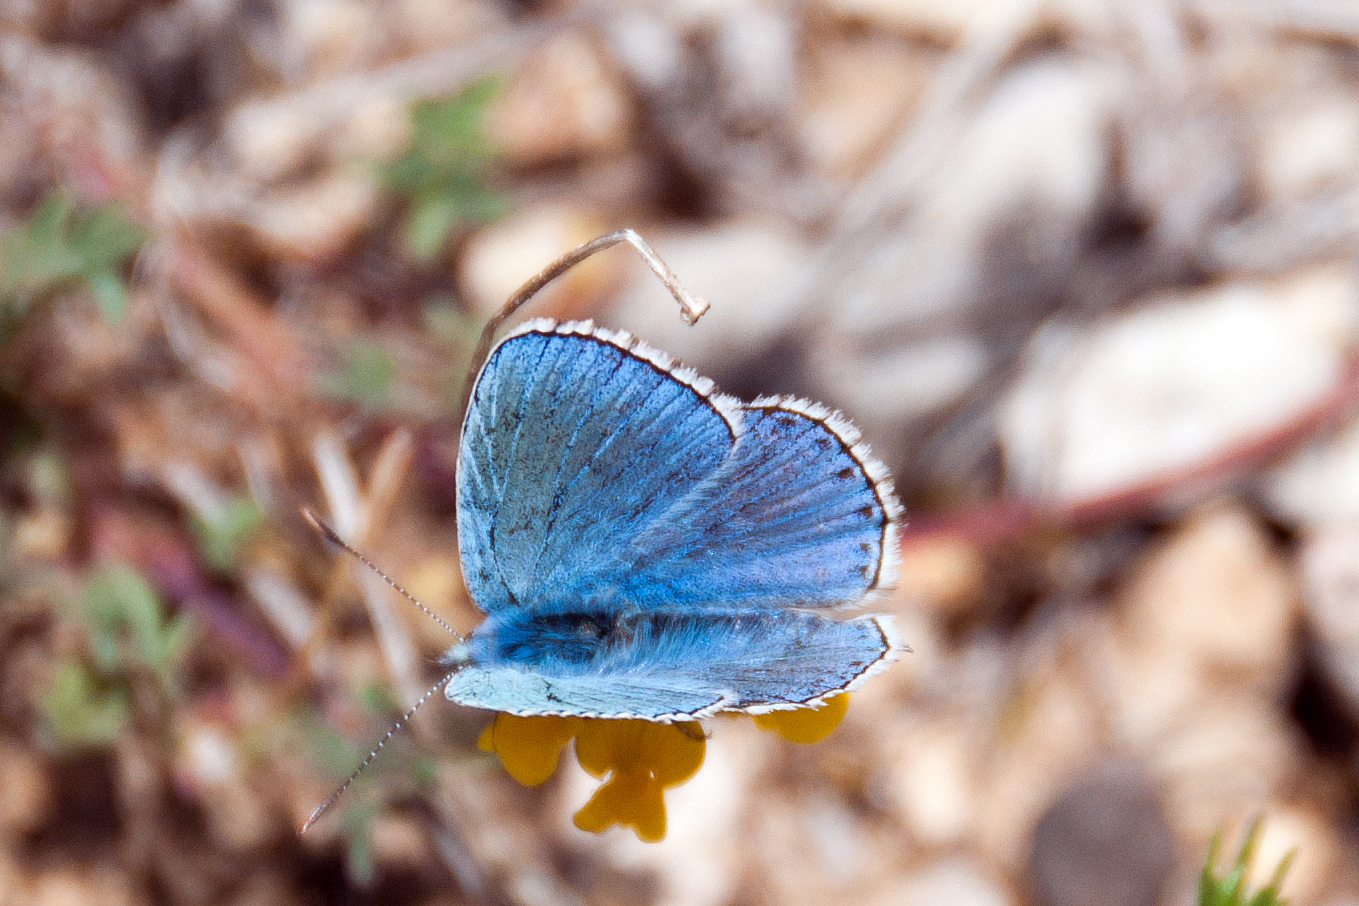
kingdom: Animalia
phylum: Arthropoda
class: Insecta
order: Lepidoptera
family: Lycaenidae
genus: Lysandra
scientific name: Lysandra bellargus
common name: Adonis blue
